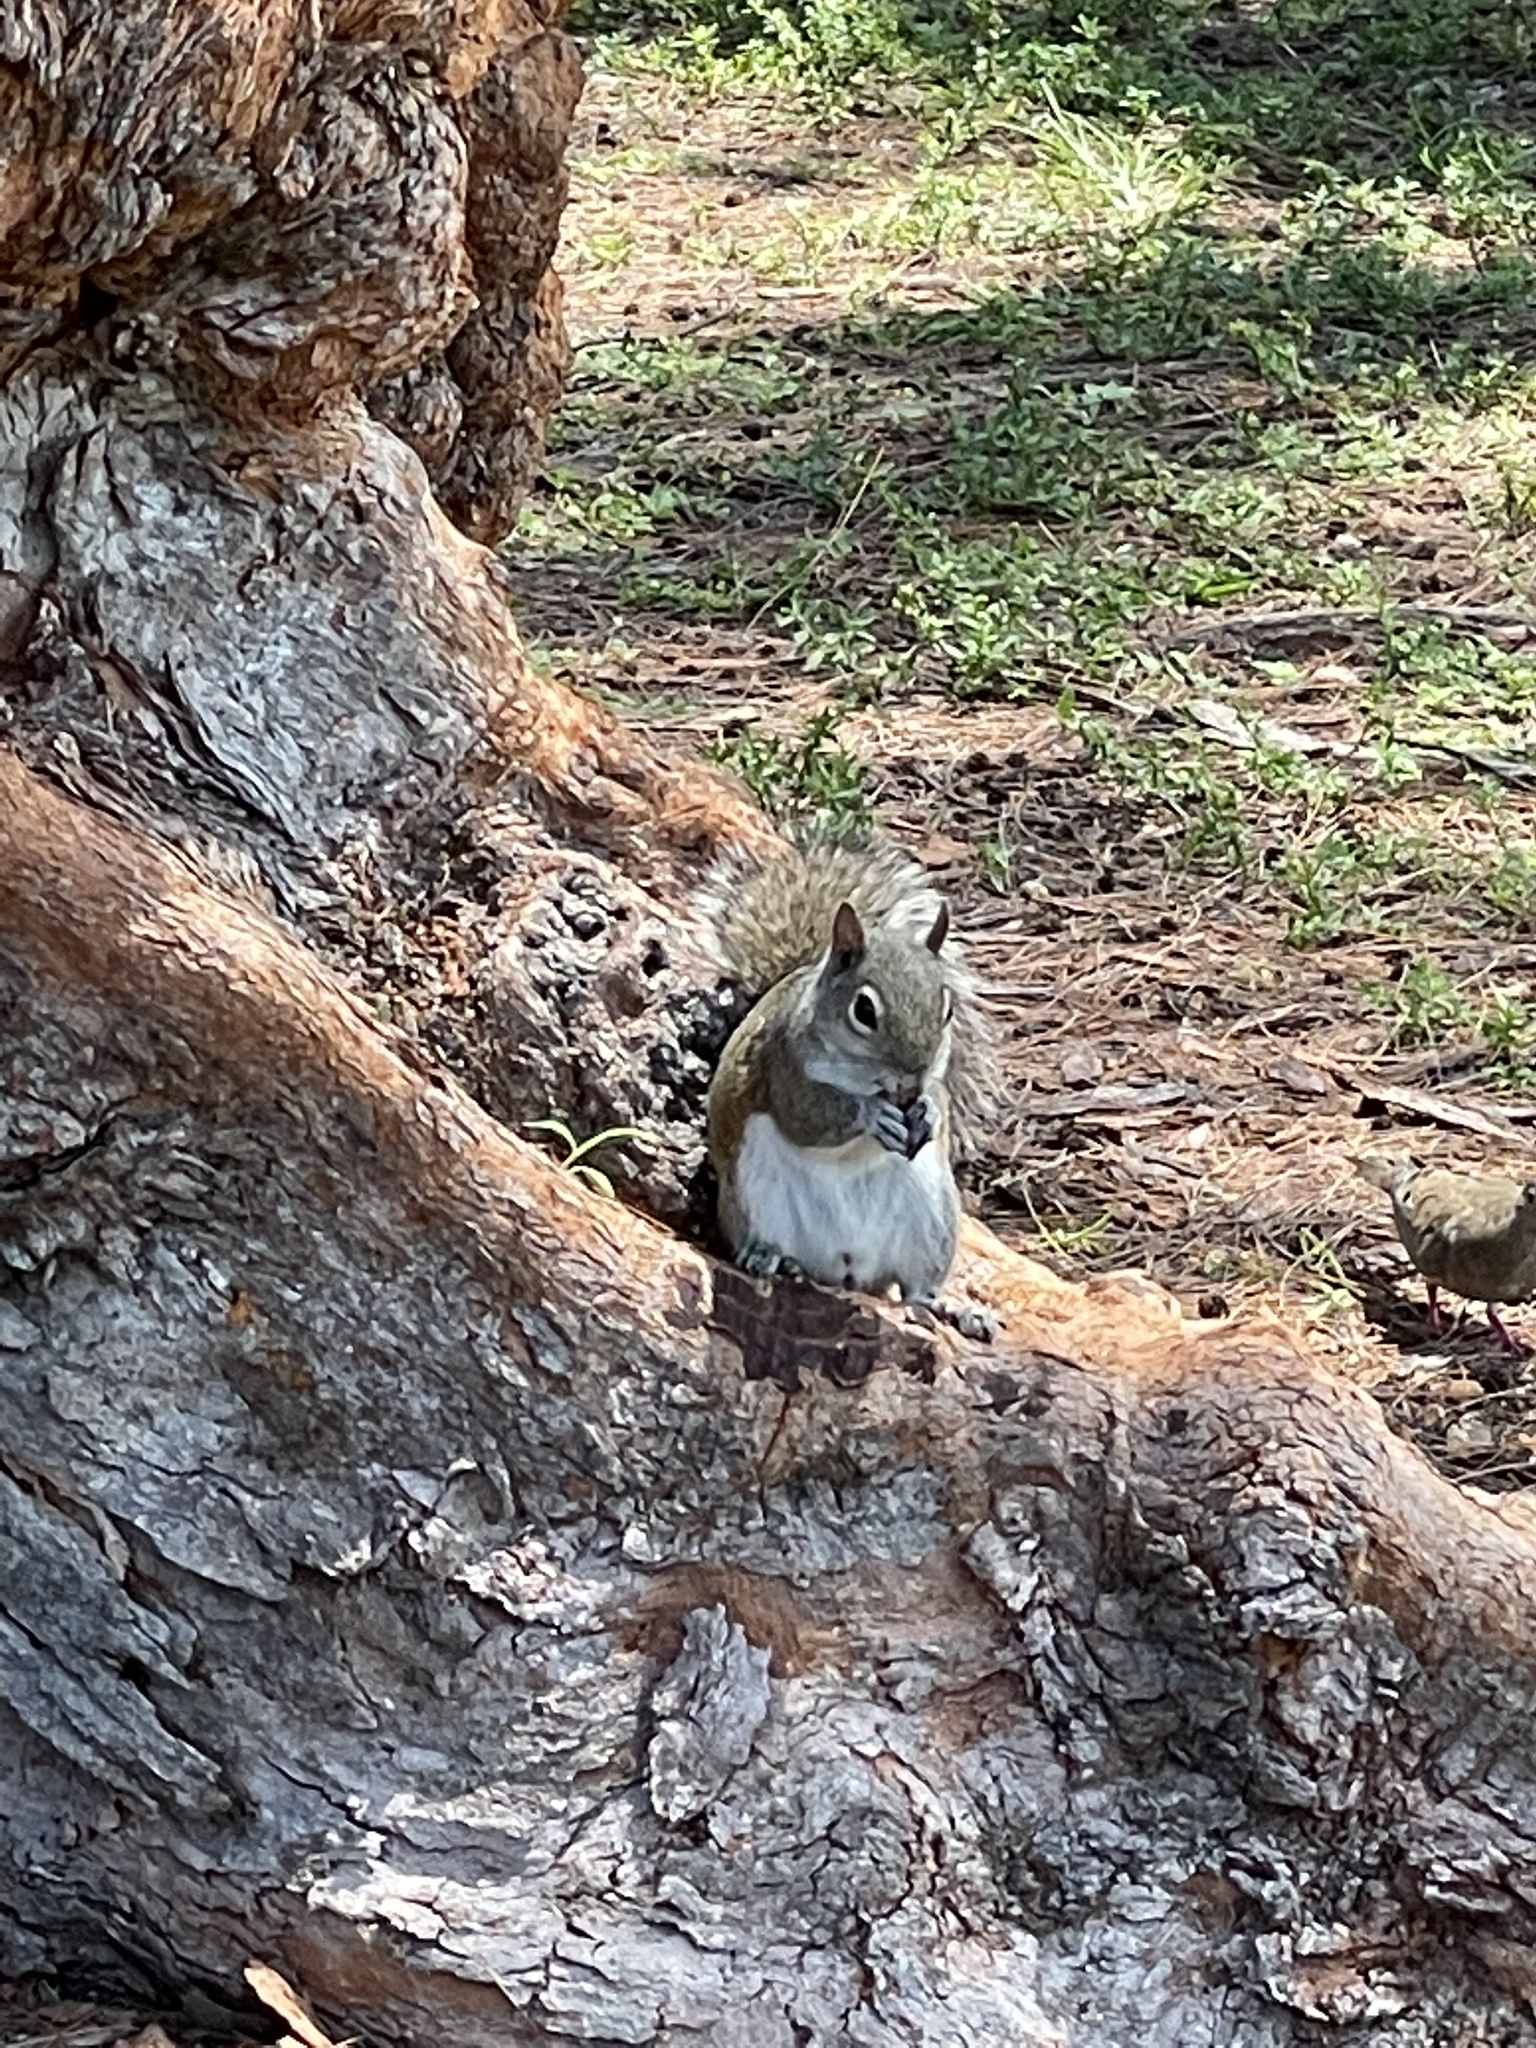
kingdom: Animalia
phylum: Chordata
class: Mammalia
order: Rodentia
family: Sciuridae
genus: Sciurus
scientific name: Sciurus carolinensis
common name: Eastern gray squirrel
